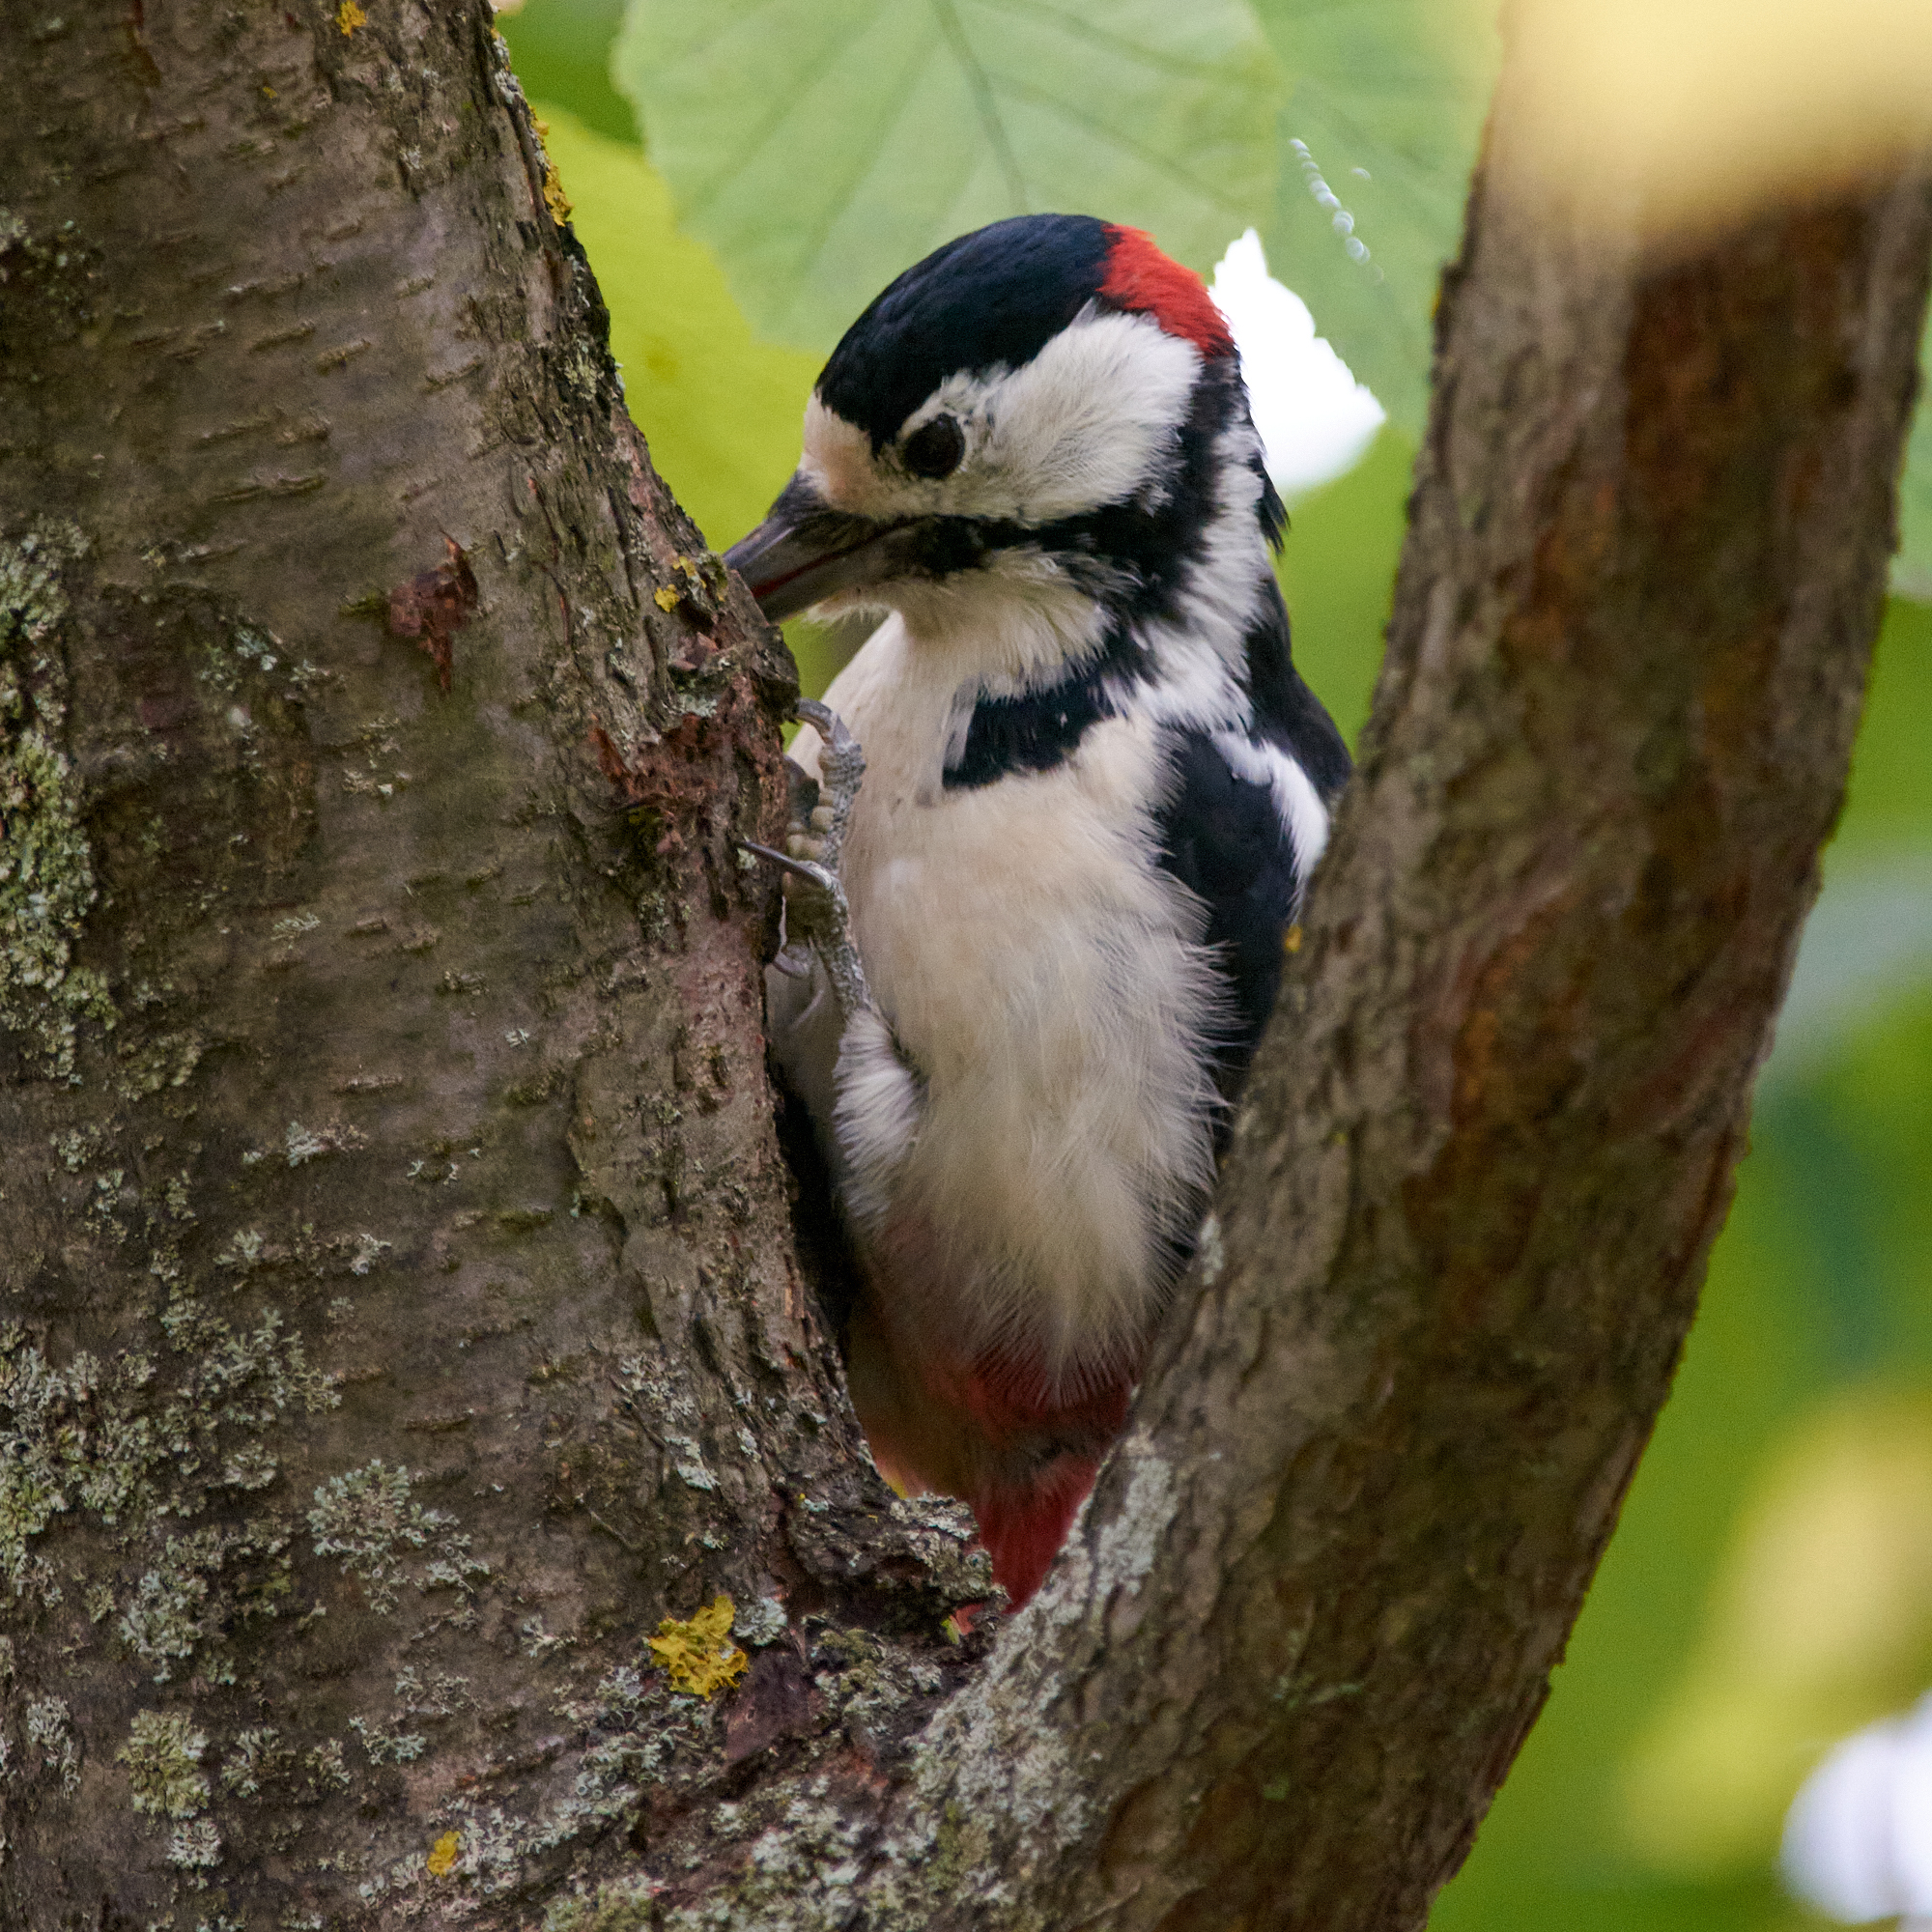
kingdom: Animalia
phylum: Chordata
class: Aves
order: Piciformes
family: Picidae
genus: Dendrocopos
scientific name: Dendrocopos major
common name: Great spotted woodpecker
